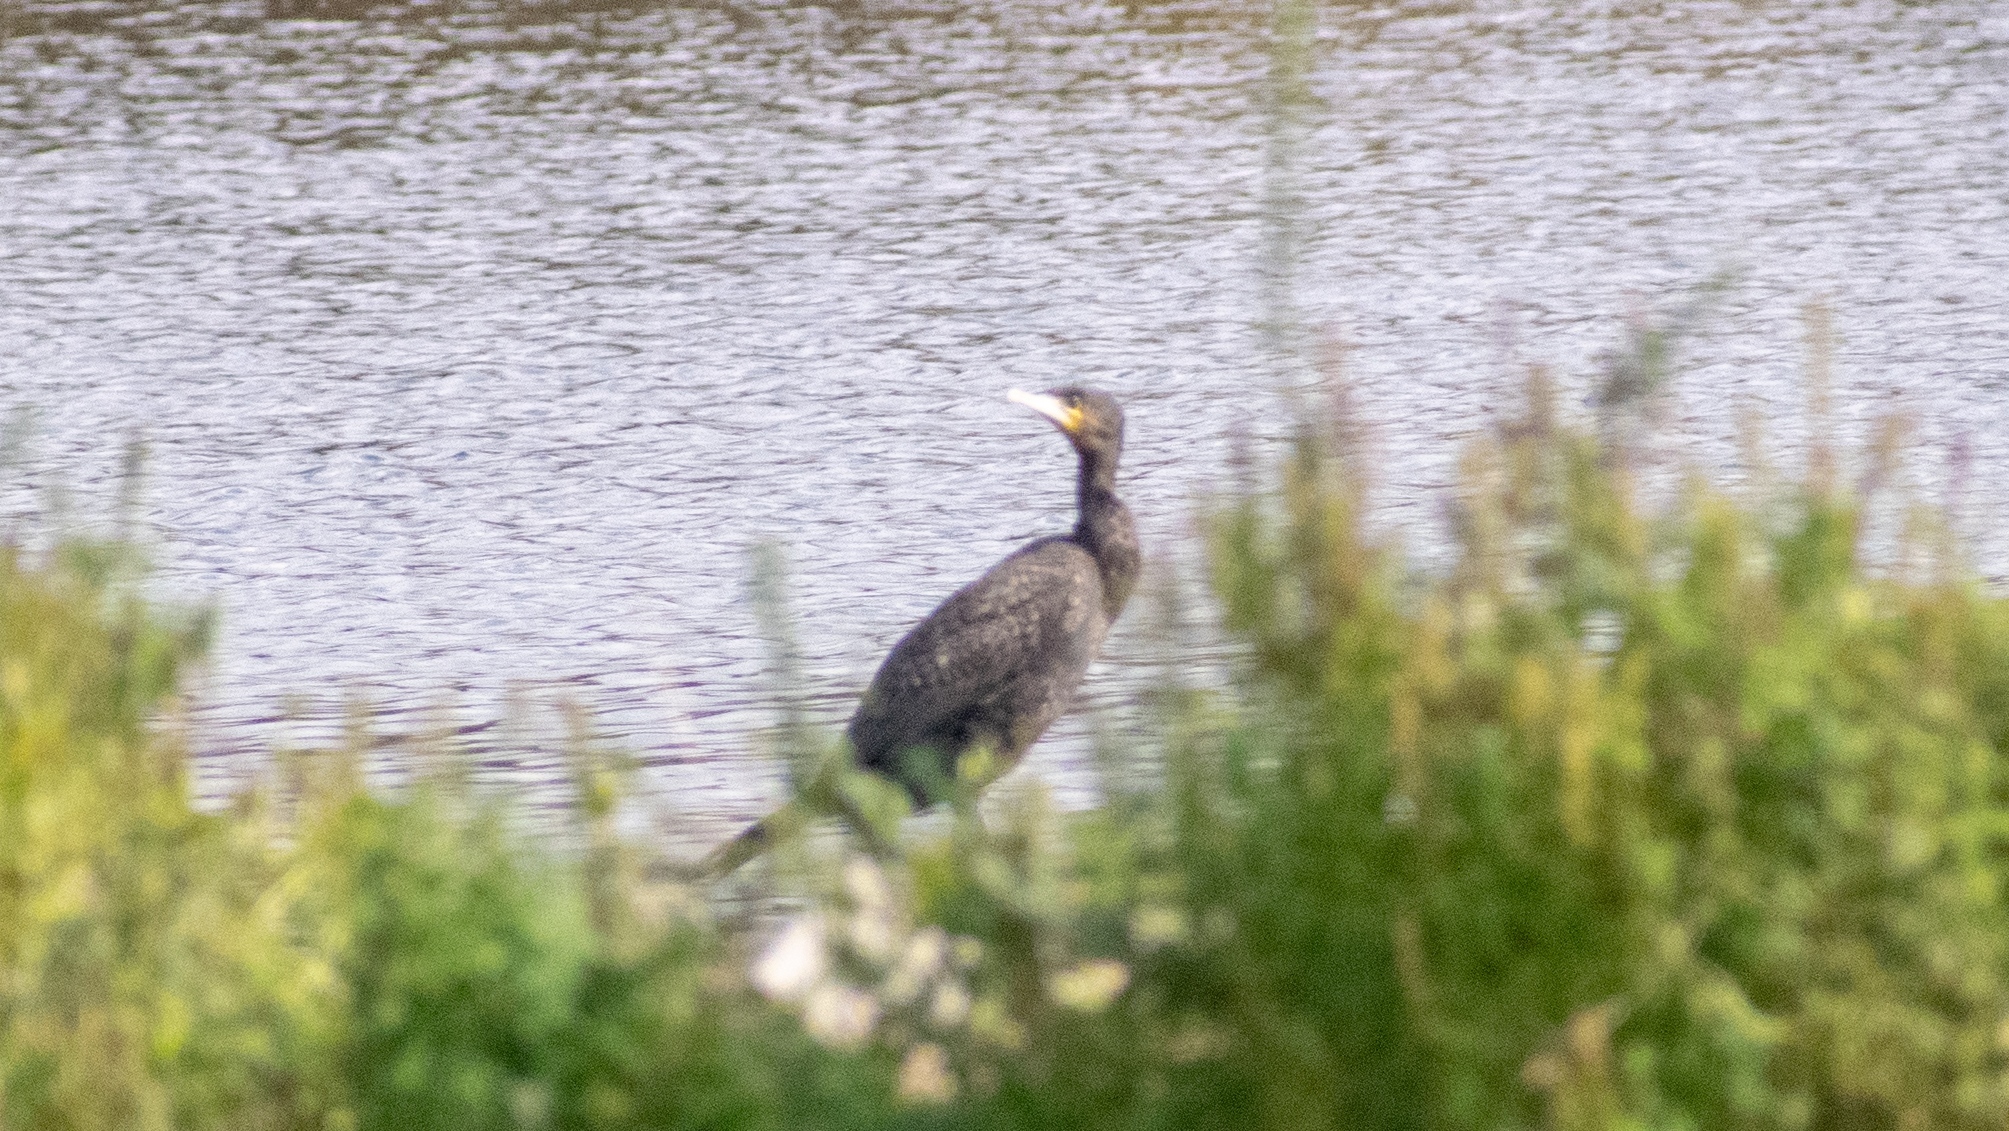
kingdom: Animalia
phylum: Chordata
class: Aves
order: Suliformes
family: Phalacrocoracidae
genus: Phalacrocorax
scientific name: Phalacrocorax carbo
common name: Great cormorant
